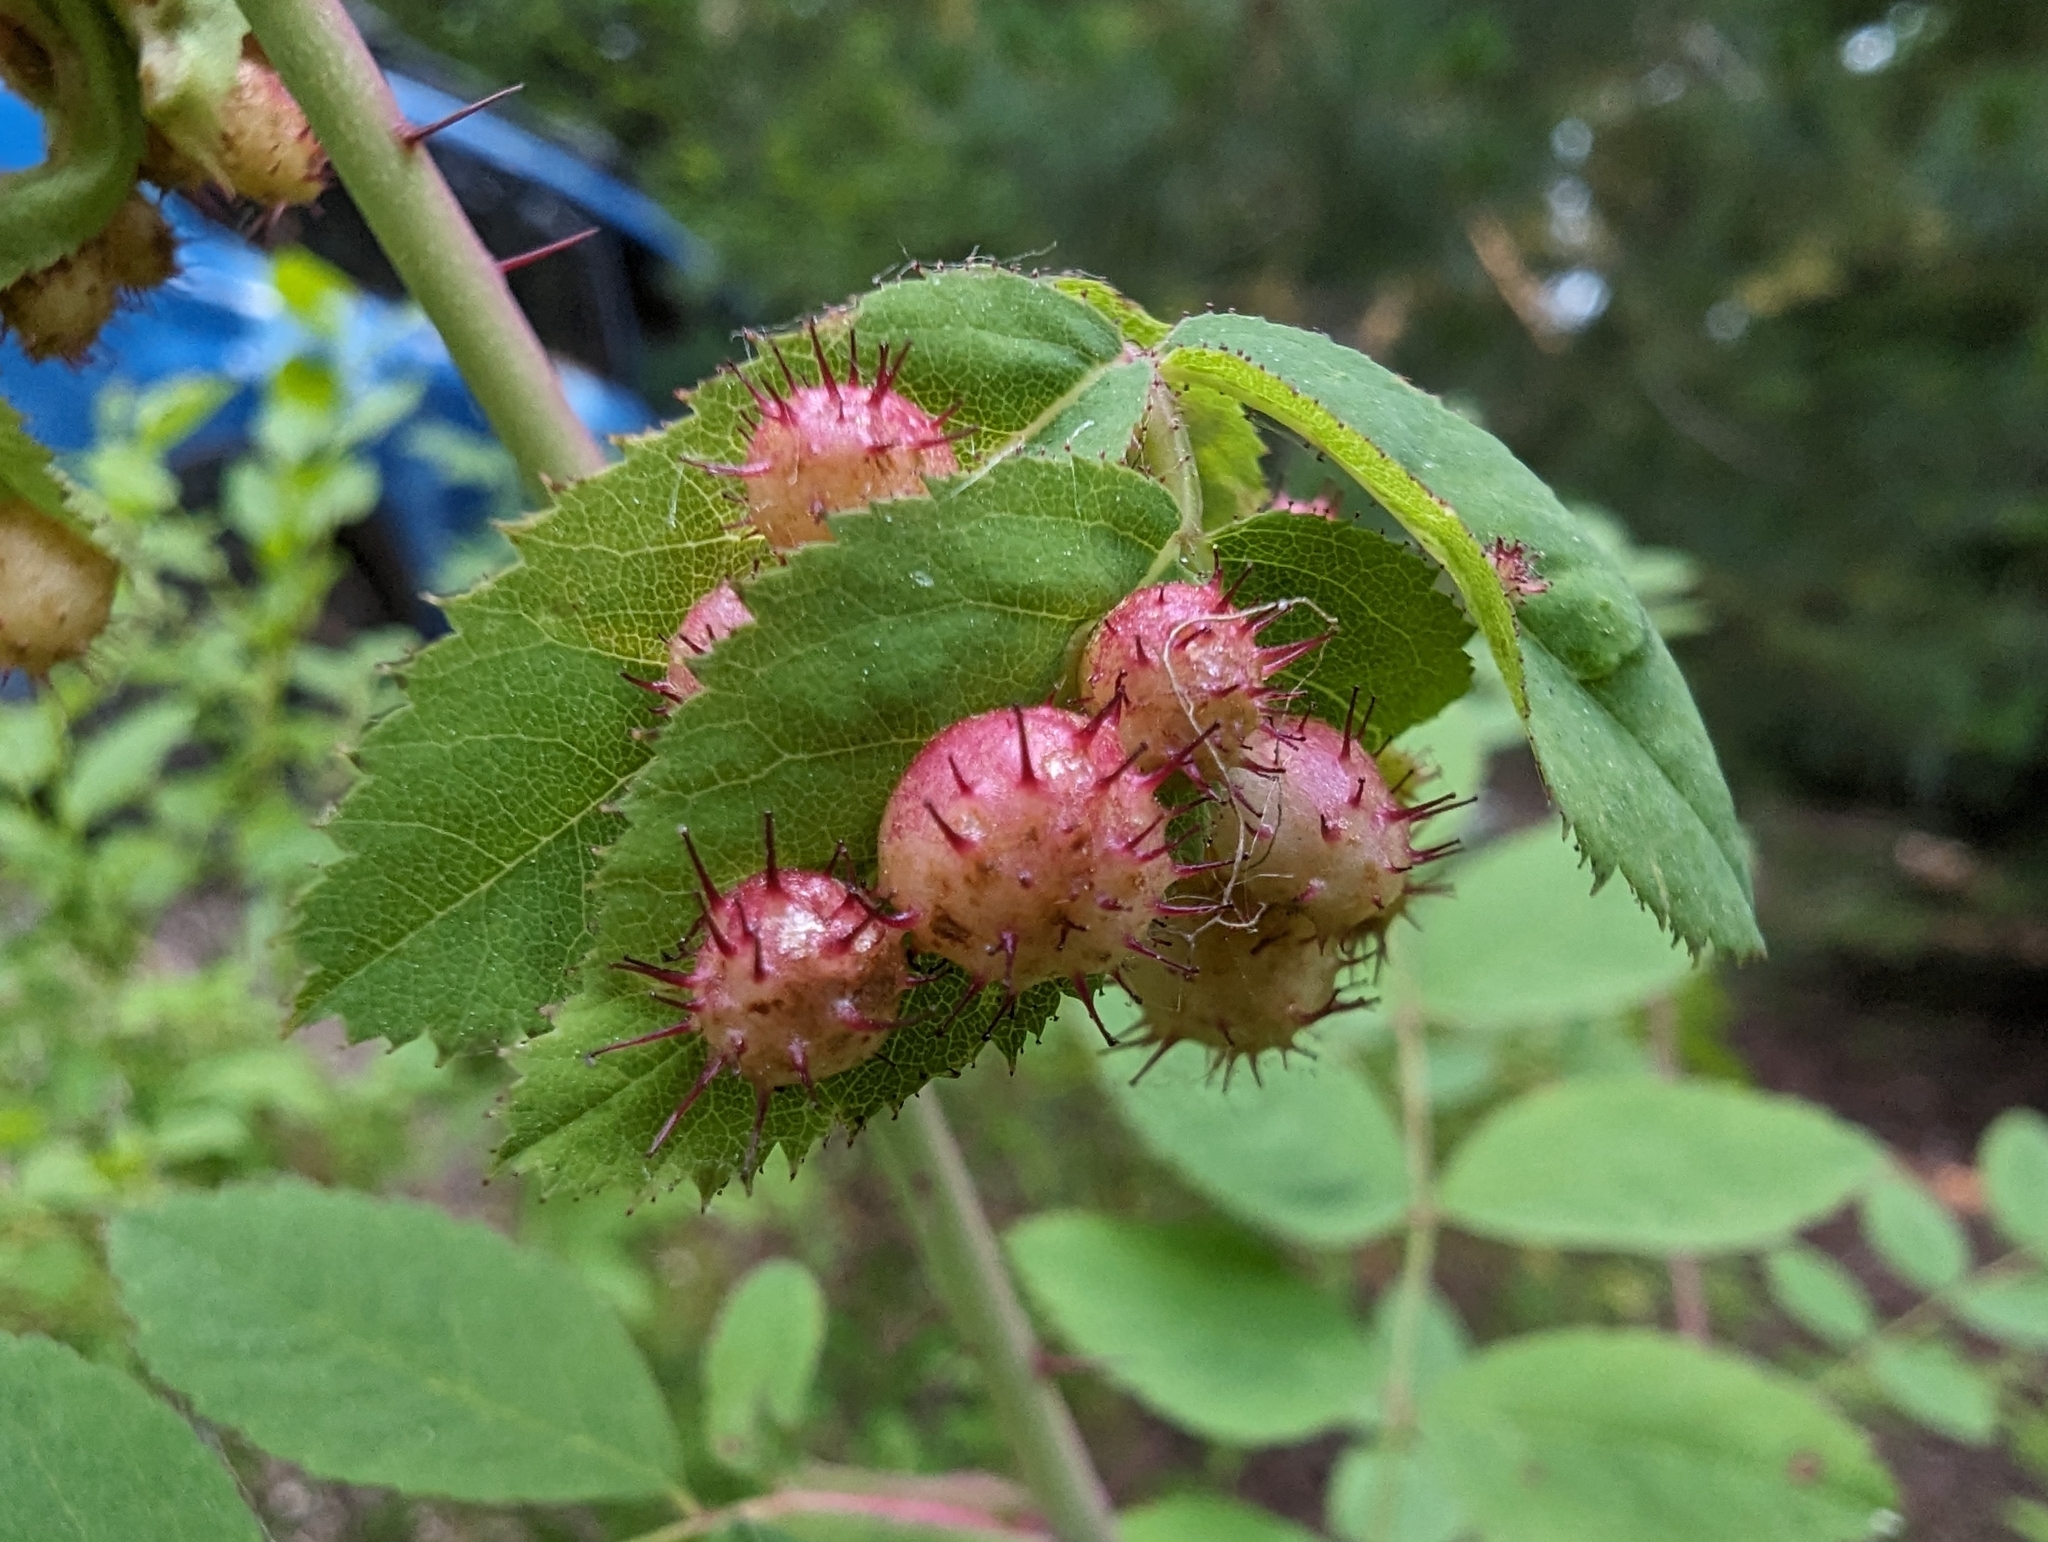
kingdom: Animalia
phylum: Arthropoda
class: Insecta
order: Hymenoptera
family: Cynipidae
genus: Diplolepis
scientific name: Diplolepis polita
